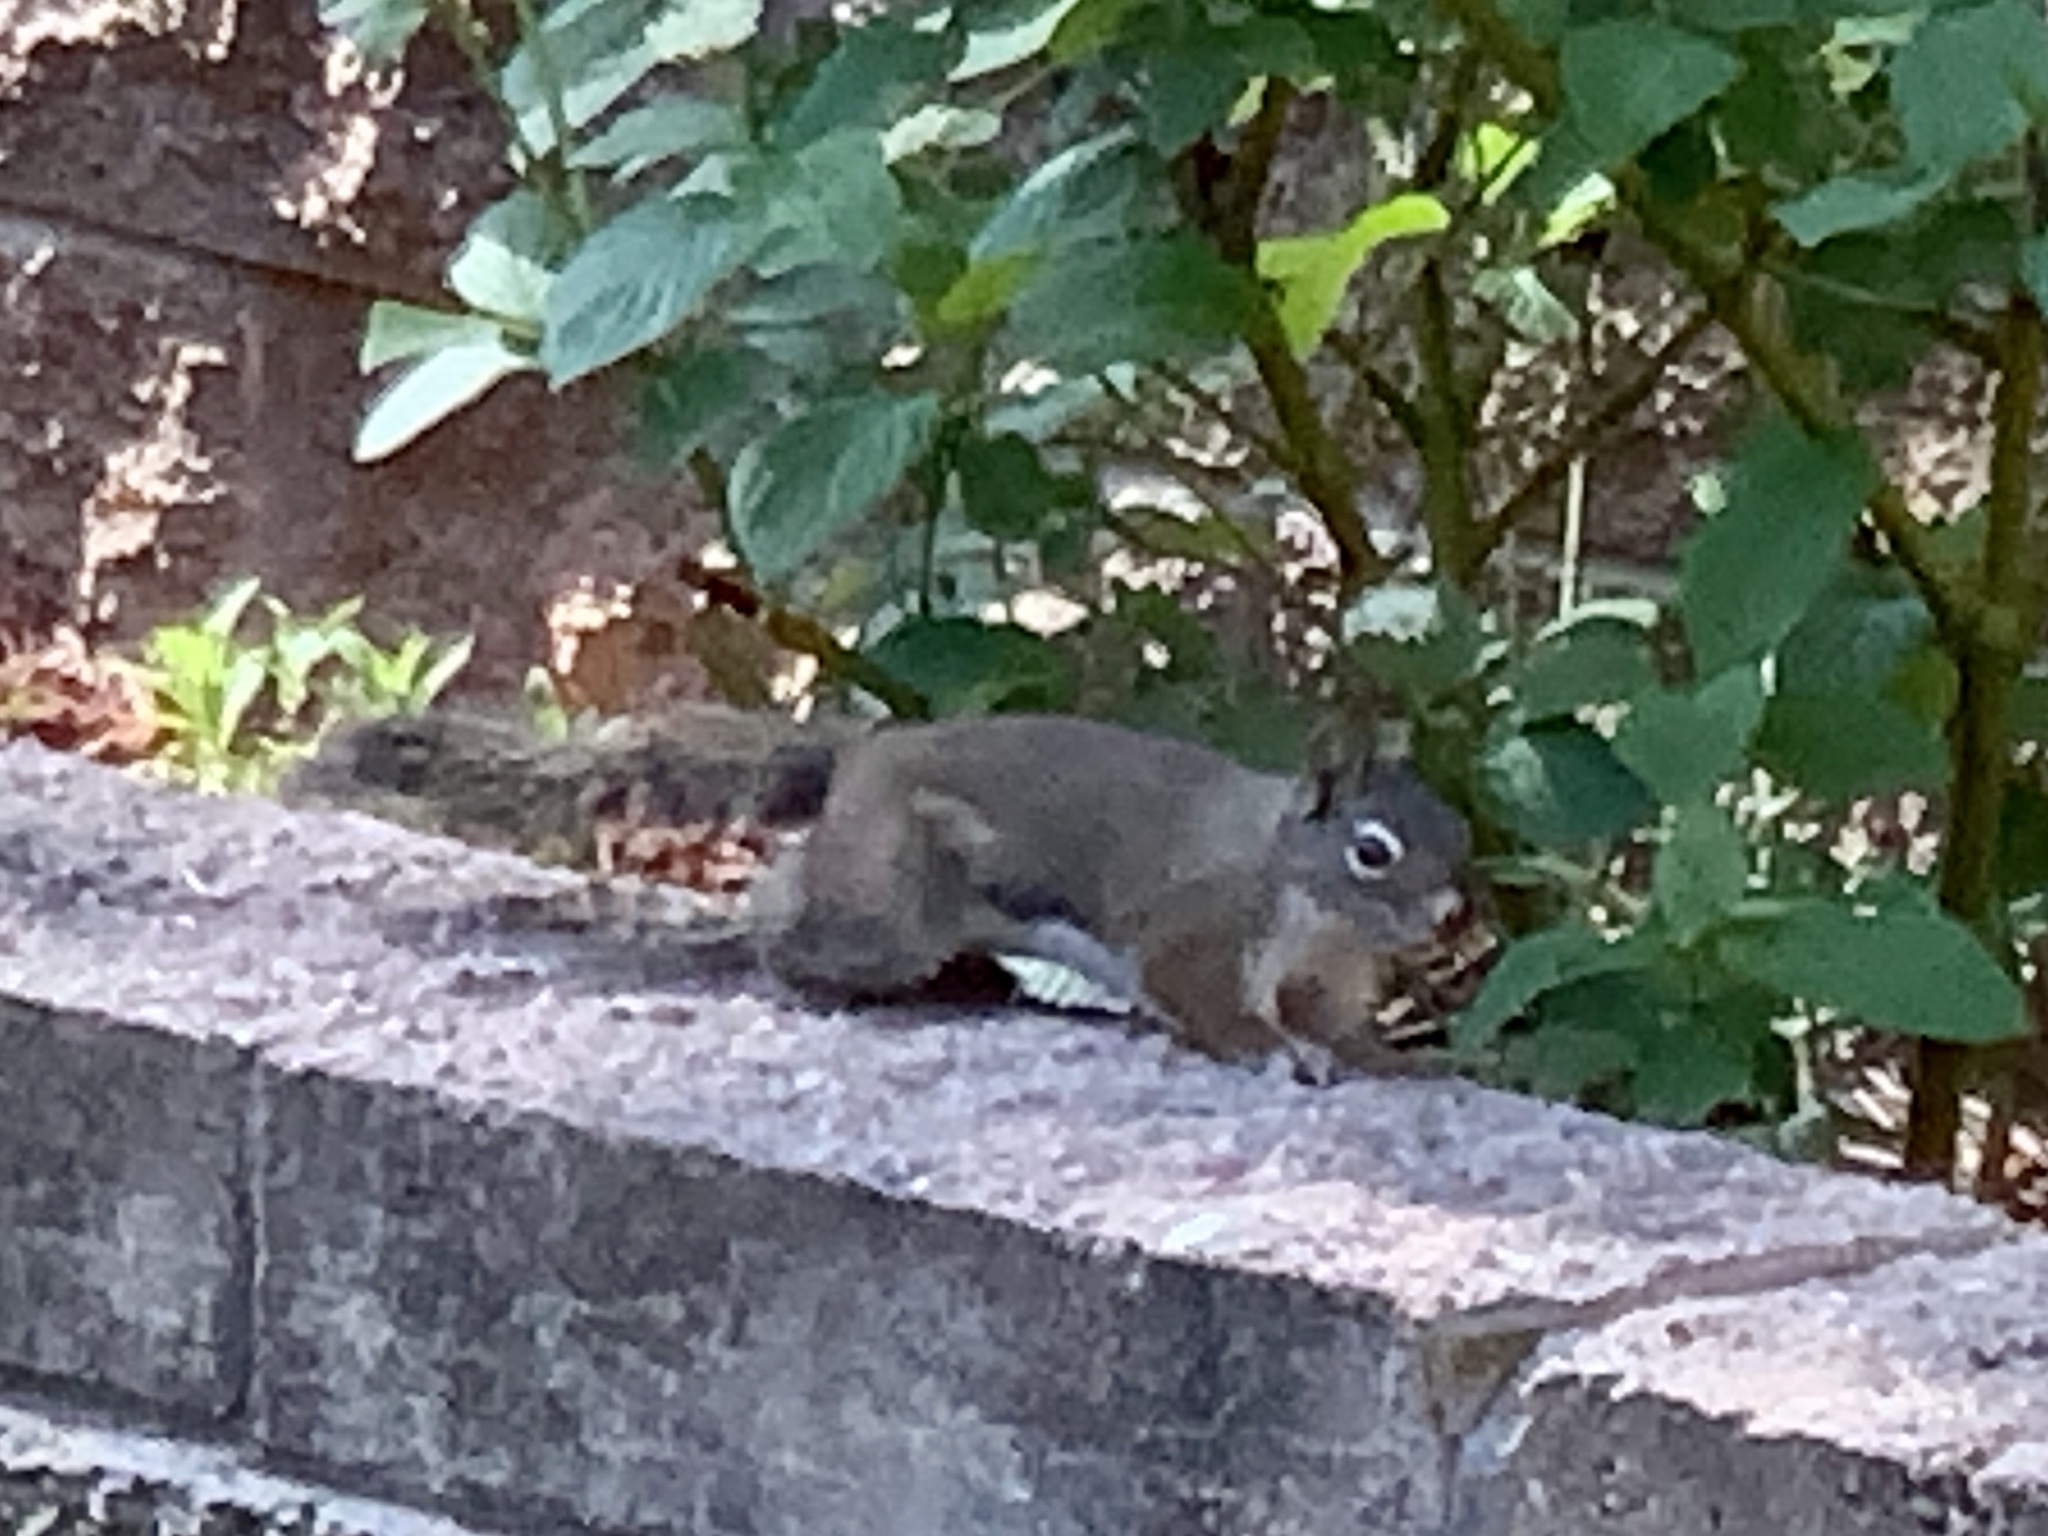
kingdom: Animalia
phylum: Chordata
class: Mammalia
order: Rodentia
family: Sciuridae
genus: Tamiasciurus
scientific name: Tamiasciurus hudsonicus
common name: Red squirrel
